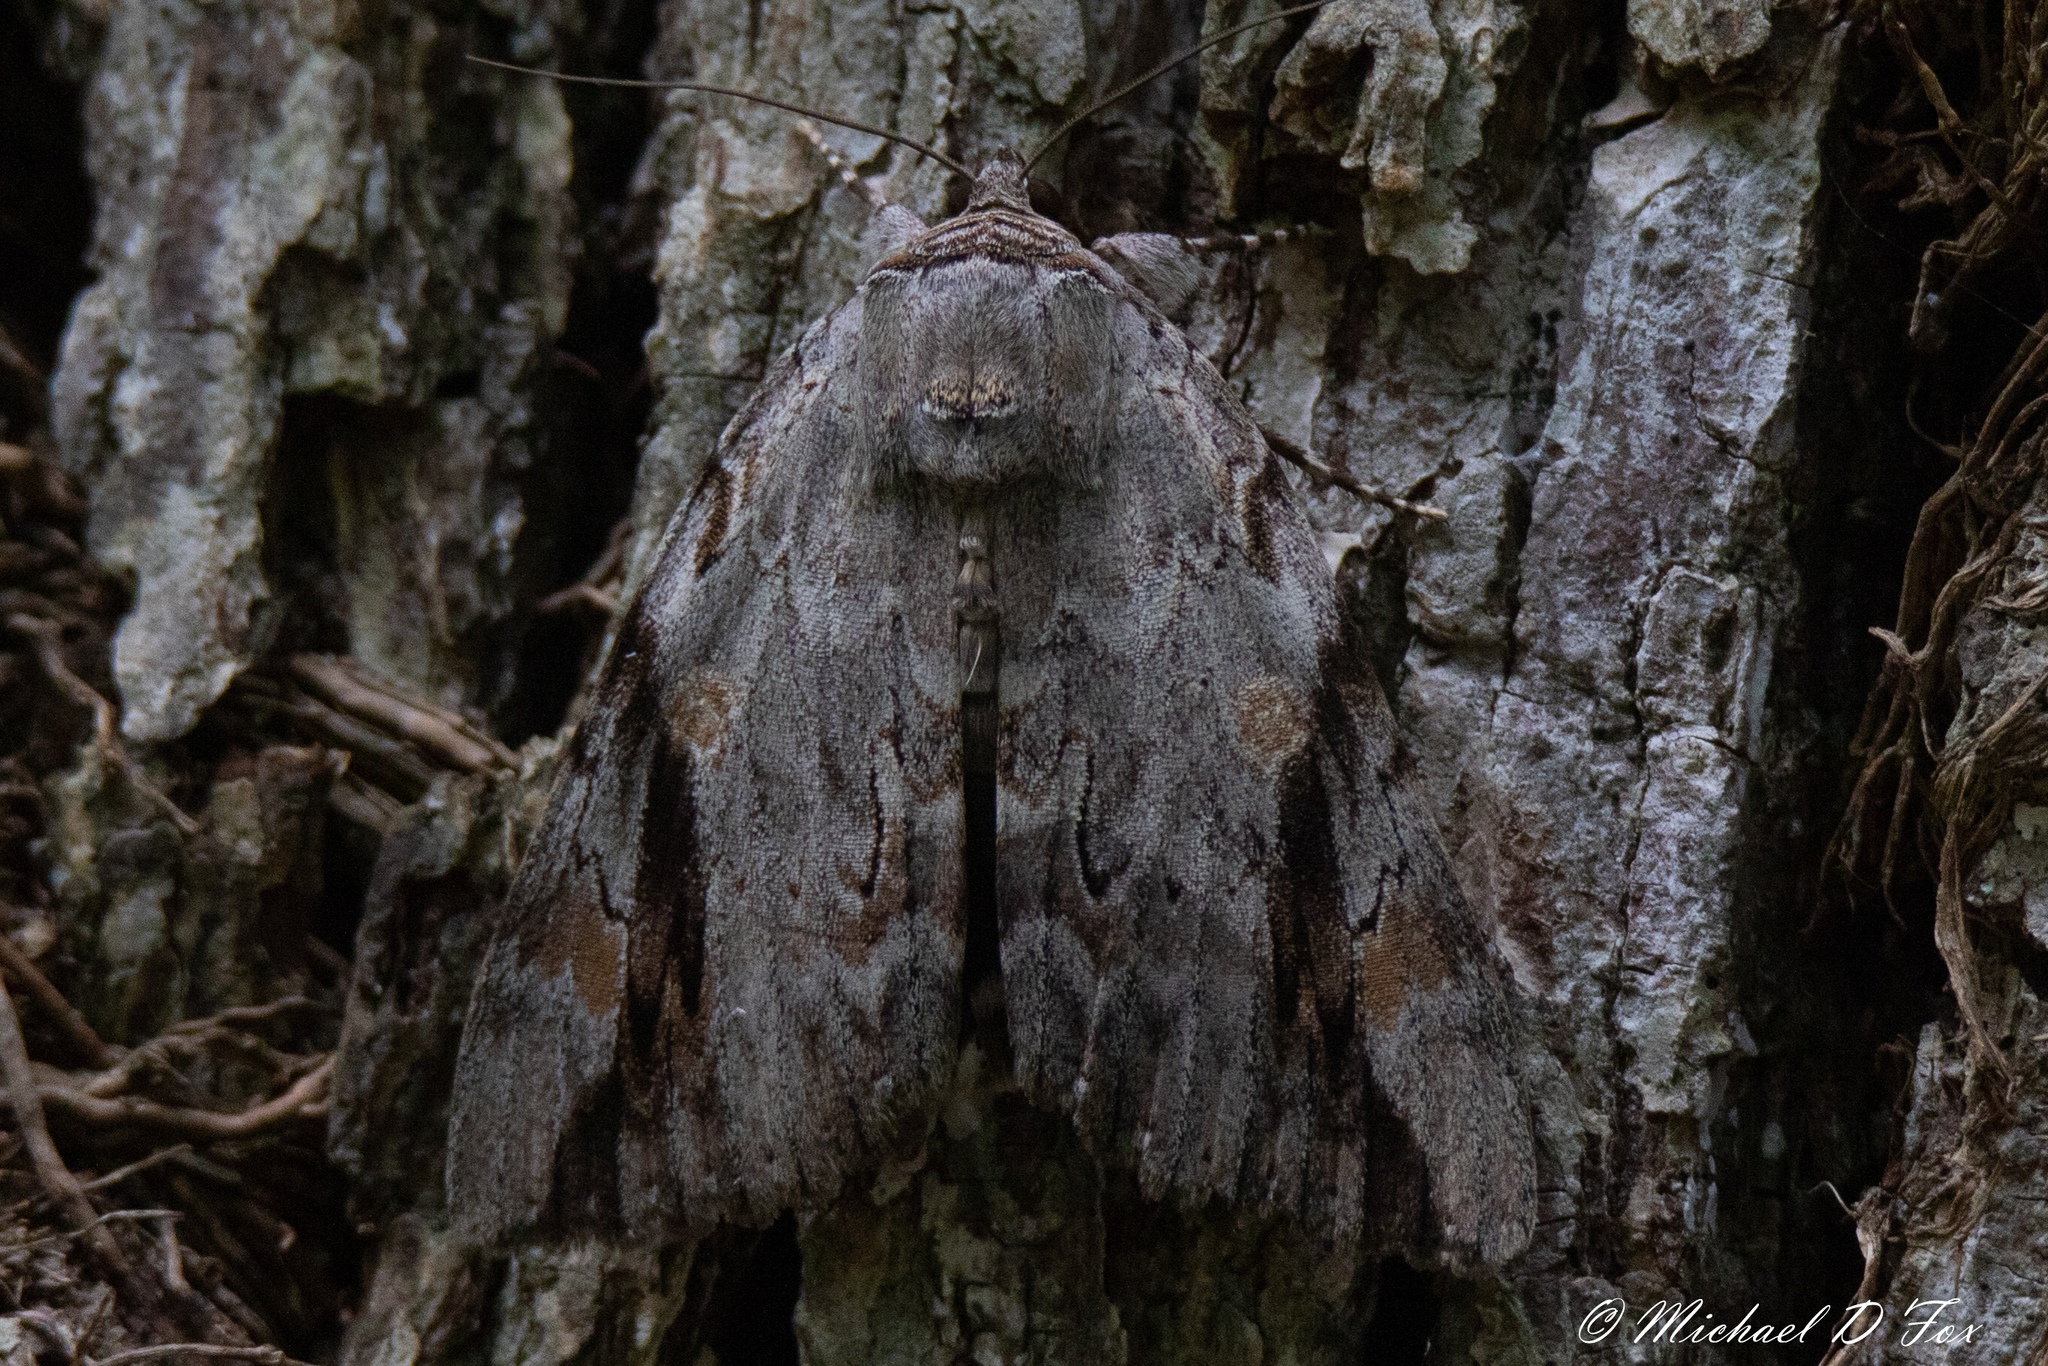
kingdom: Animalia
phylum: Arthropoda
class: Insecta
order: Lepidoptera
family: Erebidae
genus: Catocala
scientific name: Catocala maestosa
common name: Sad underwing
